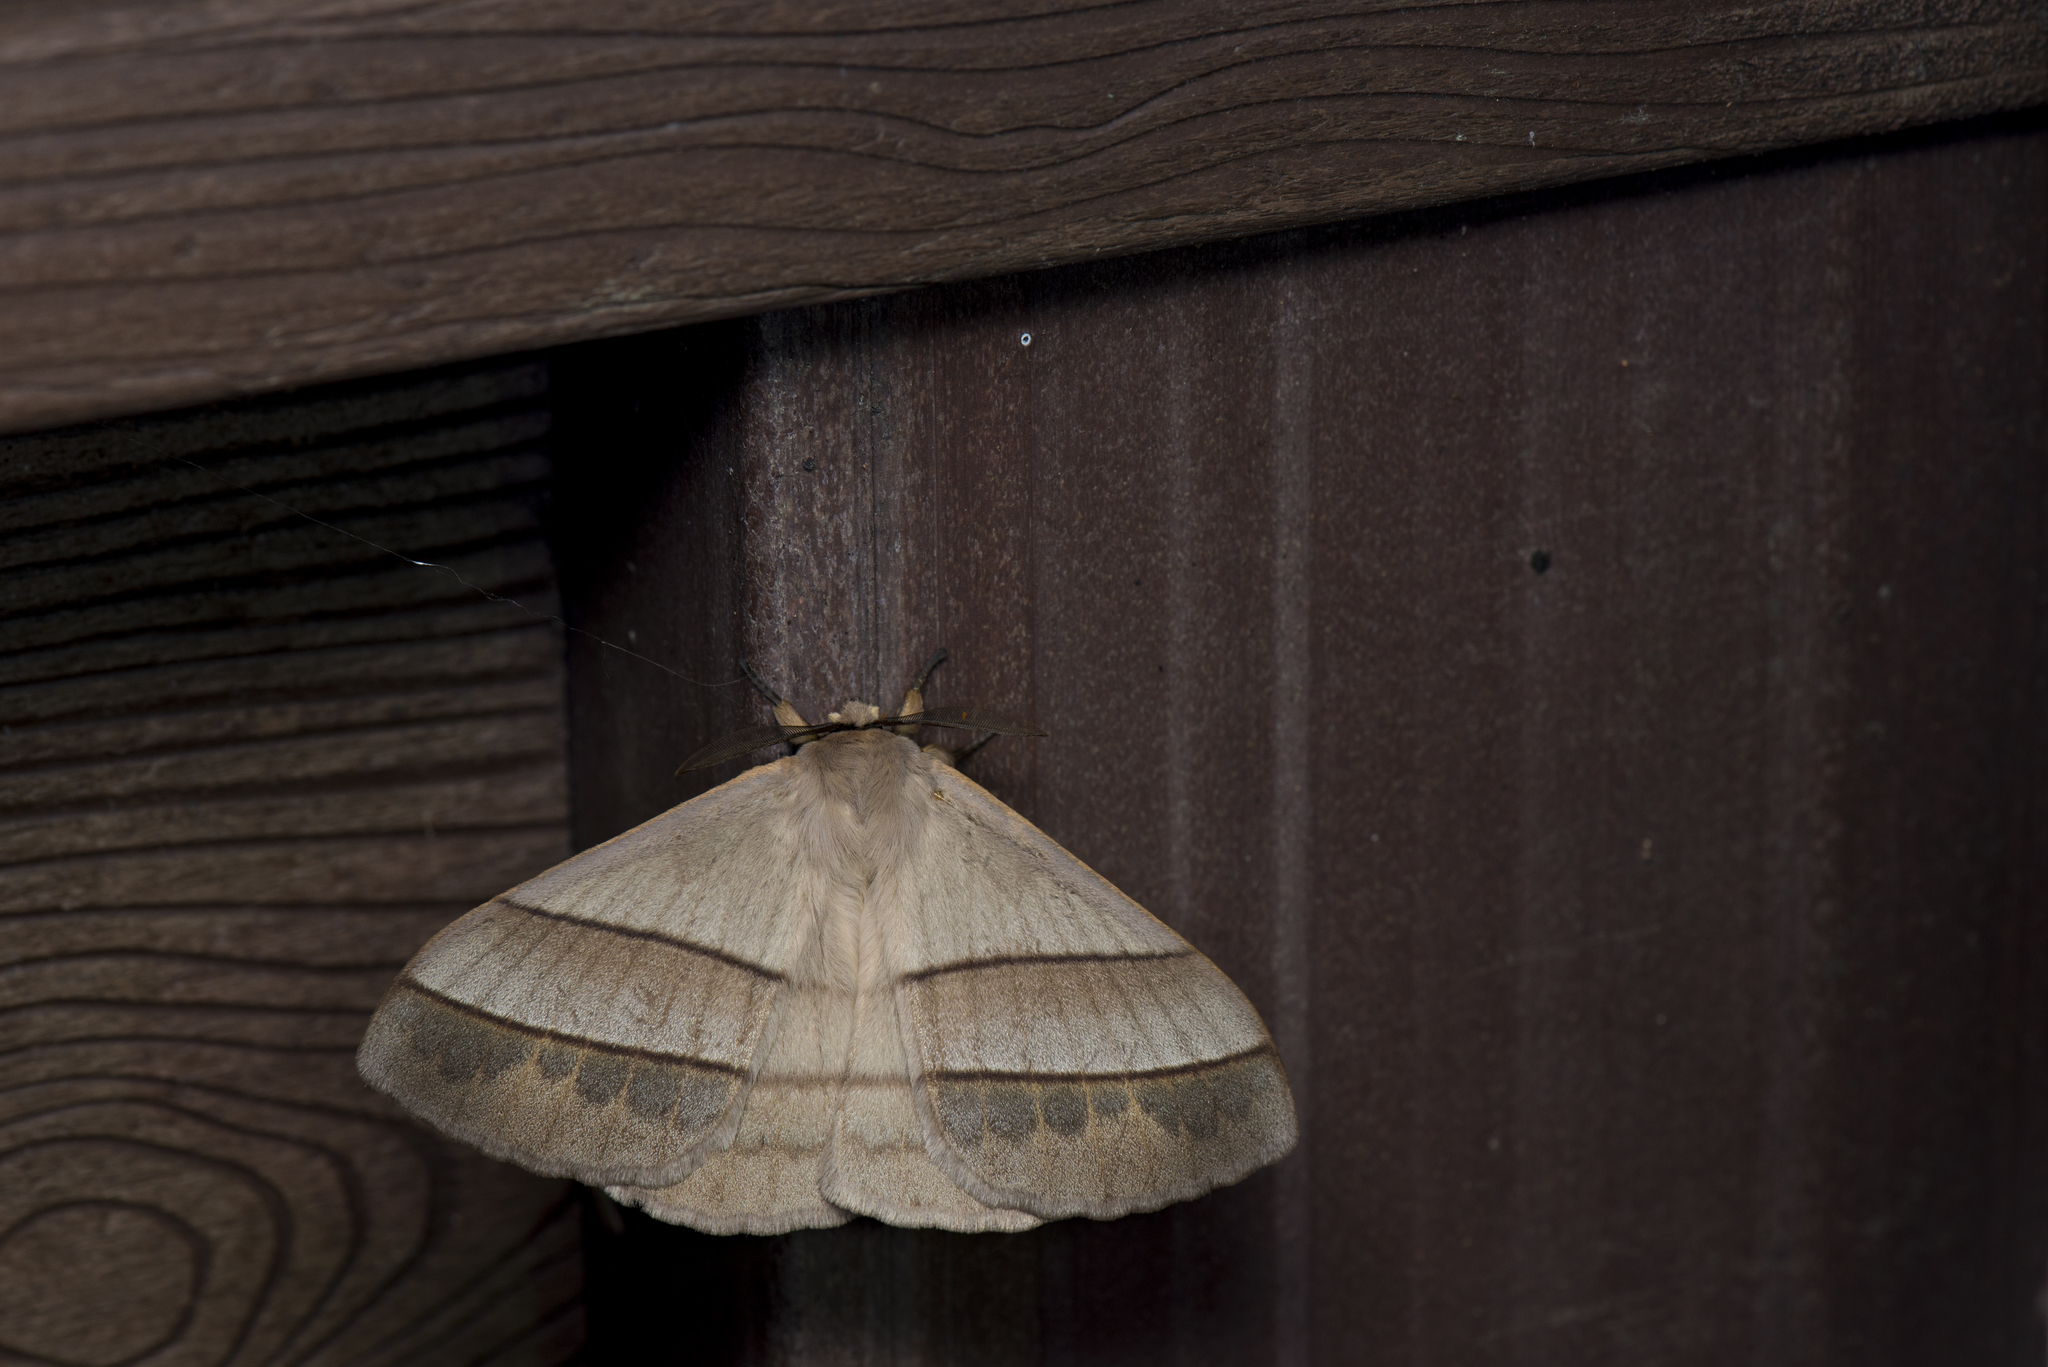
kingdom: Animalia
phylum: Arthropoda
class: Insecta
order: Lepidoptera
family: Eupterotidae
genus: Palirisa
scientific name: Palirisa cervina
